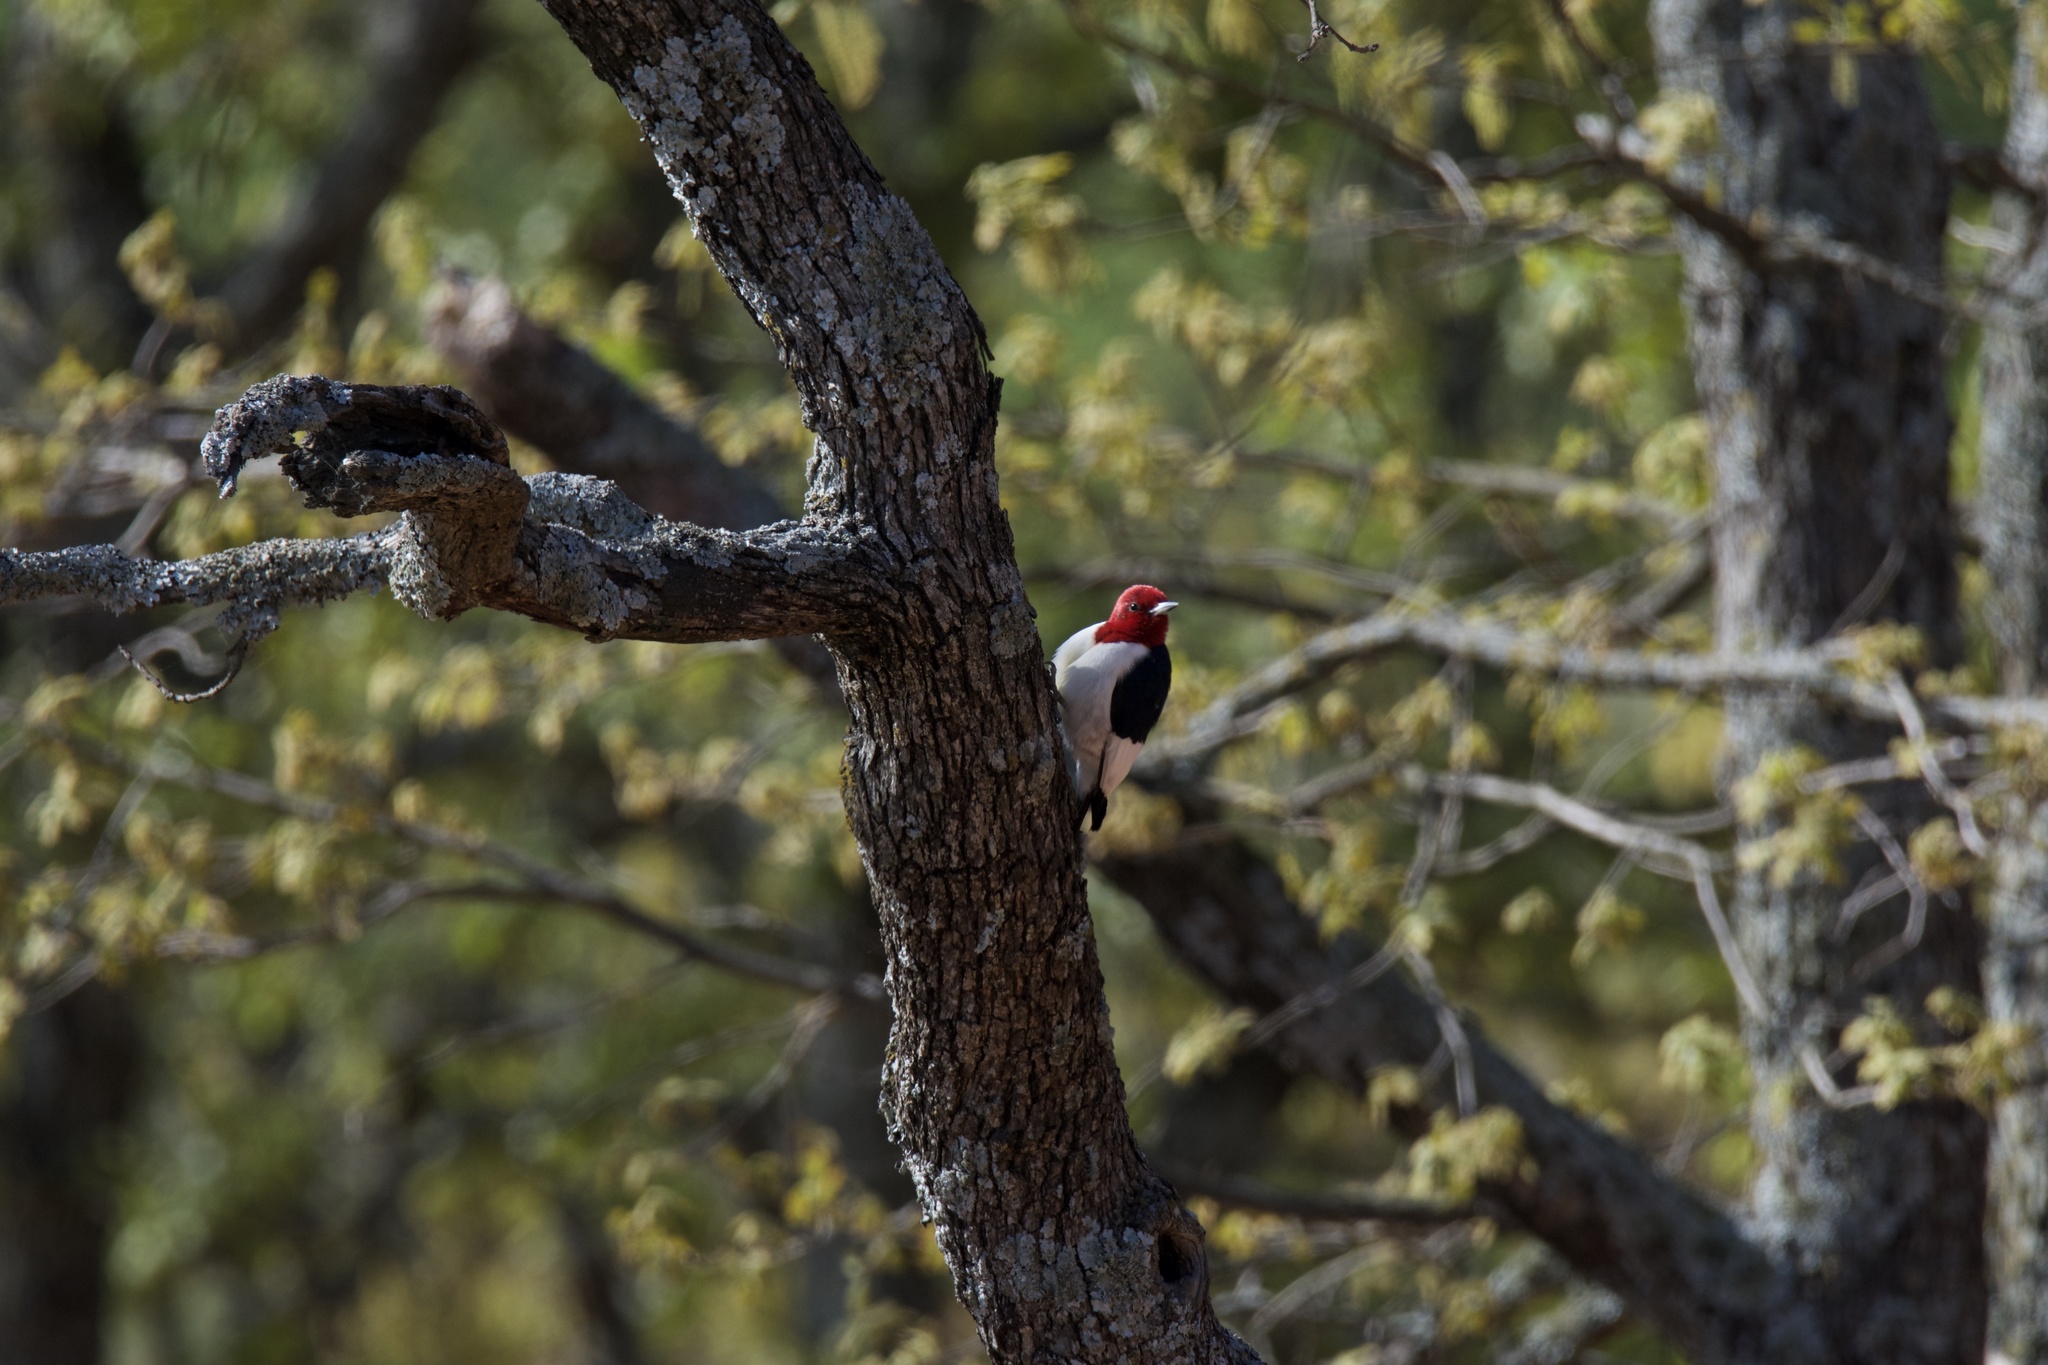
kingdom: Animalia
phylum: Chordata
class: Aves
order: Piciformes
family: Picidae
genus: Melanerpes
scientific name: Melanerpes erythrocephalus
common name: Red-headed woodpecker
